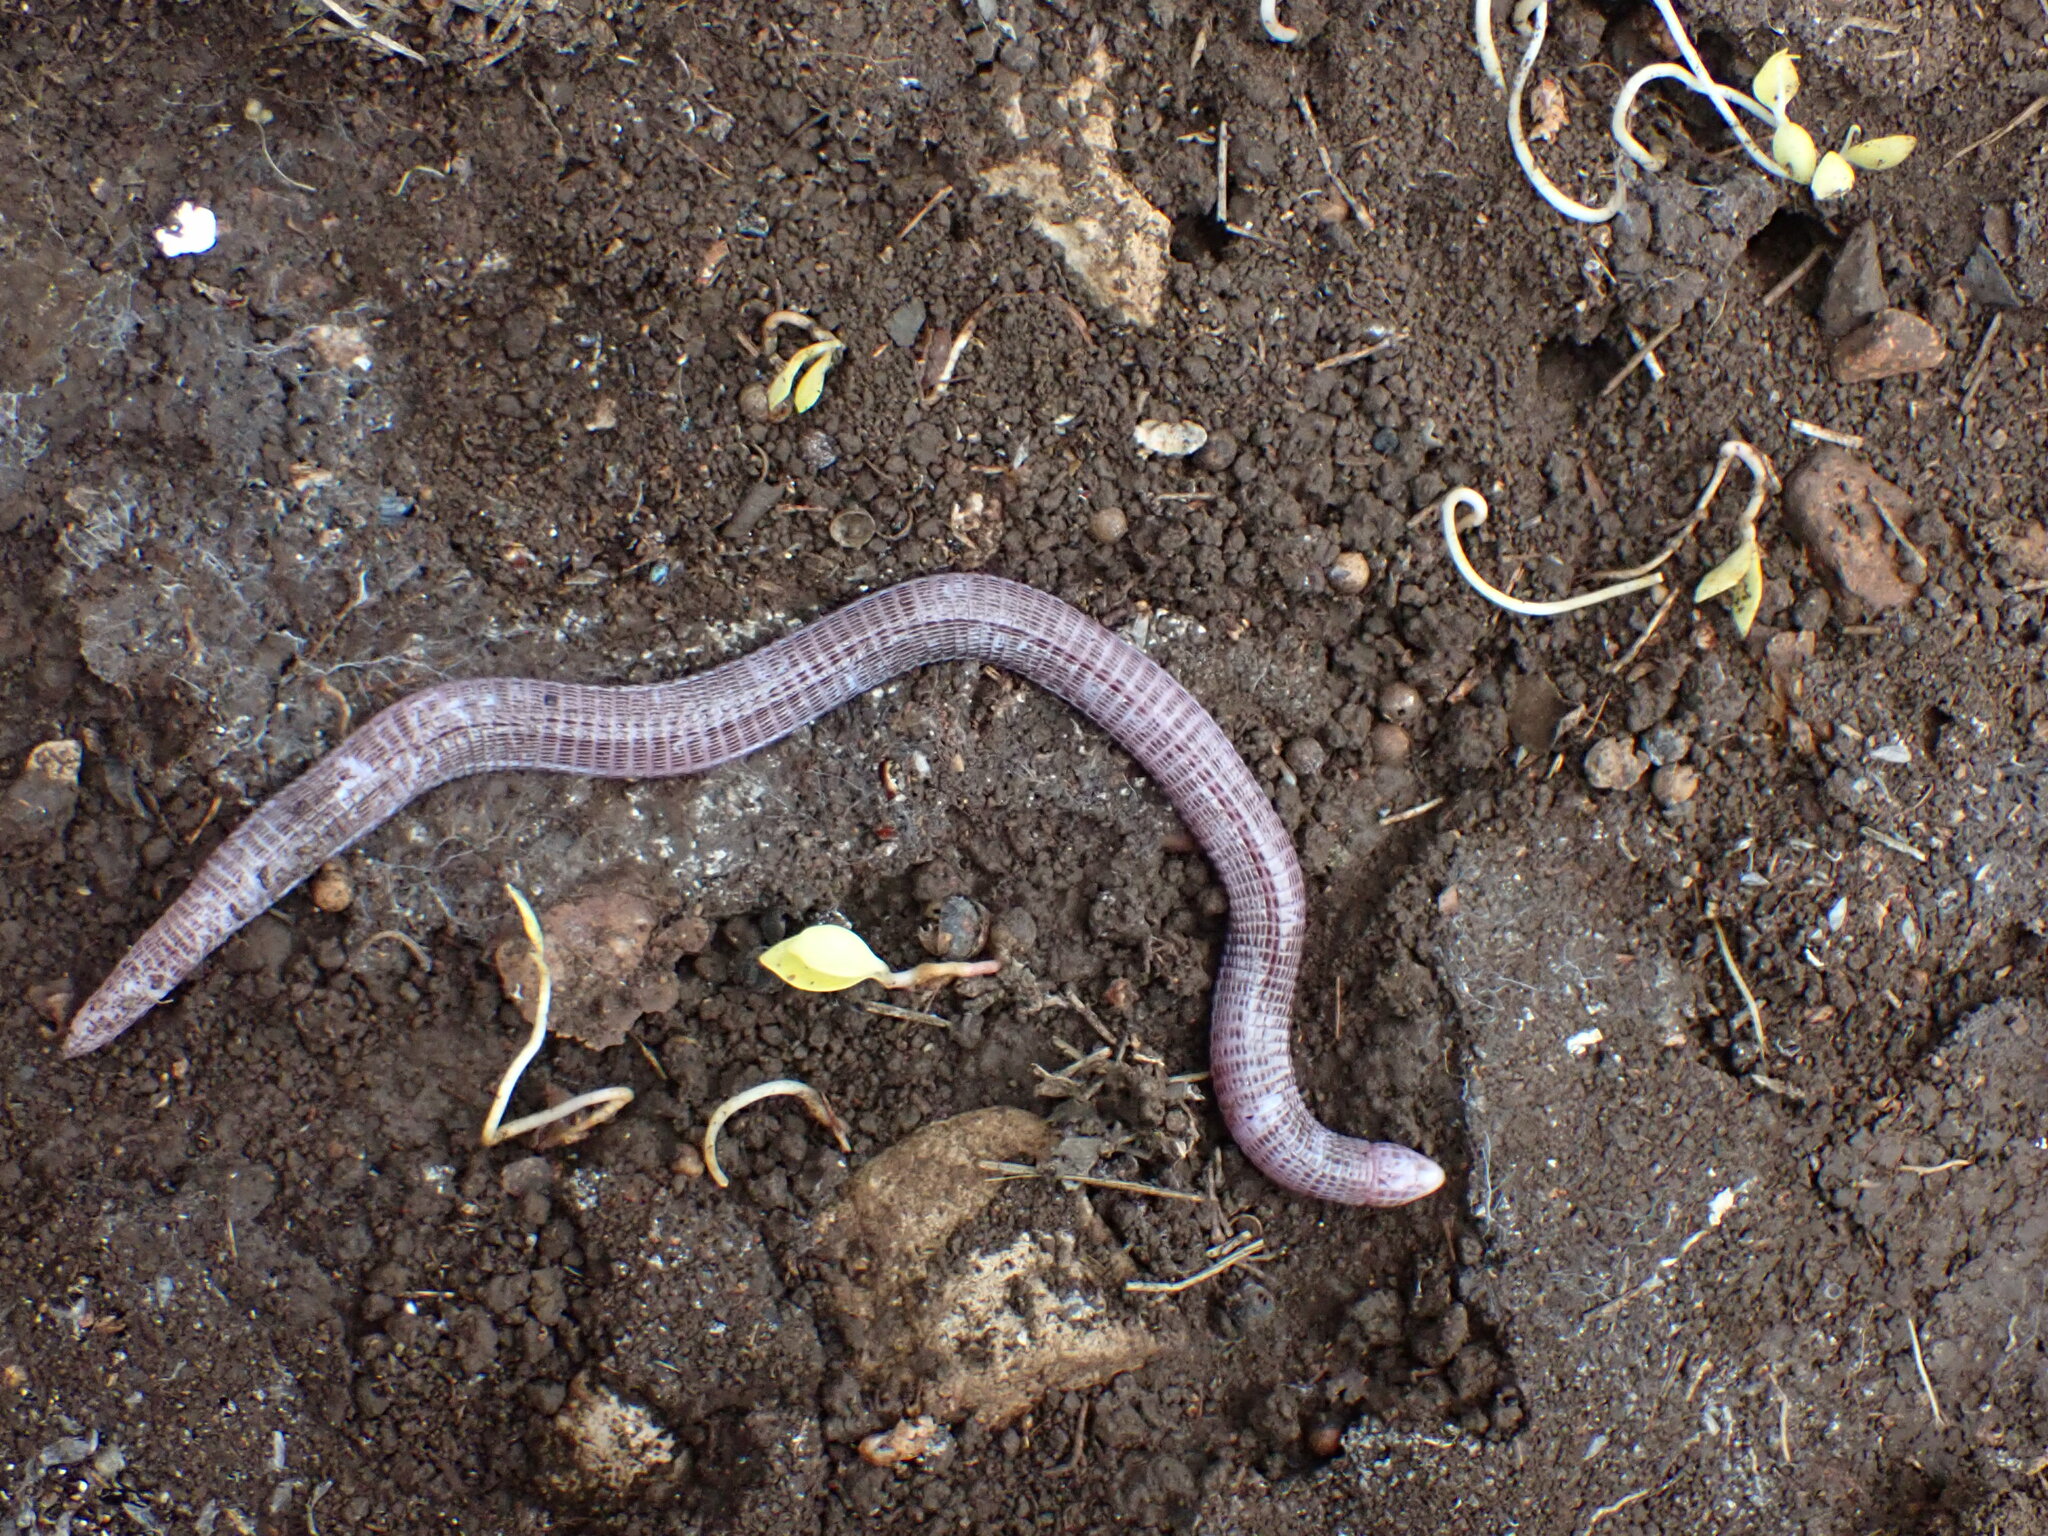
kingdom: Animalia
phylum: Chordata
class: Squamata
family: Blanidae
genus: Blanus
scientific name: Blanus aporus
